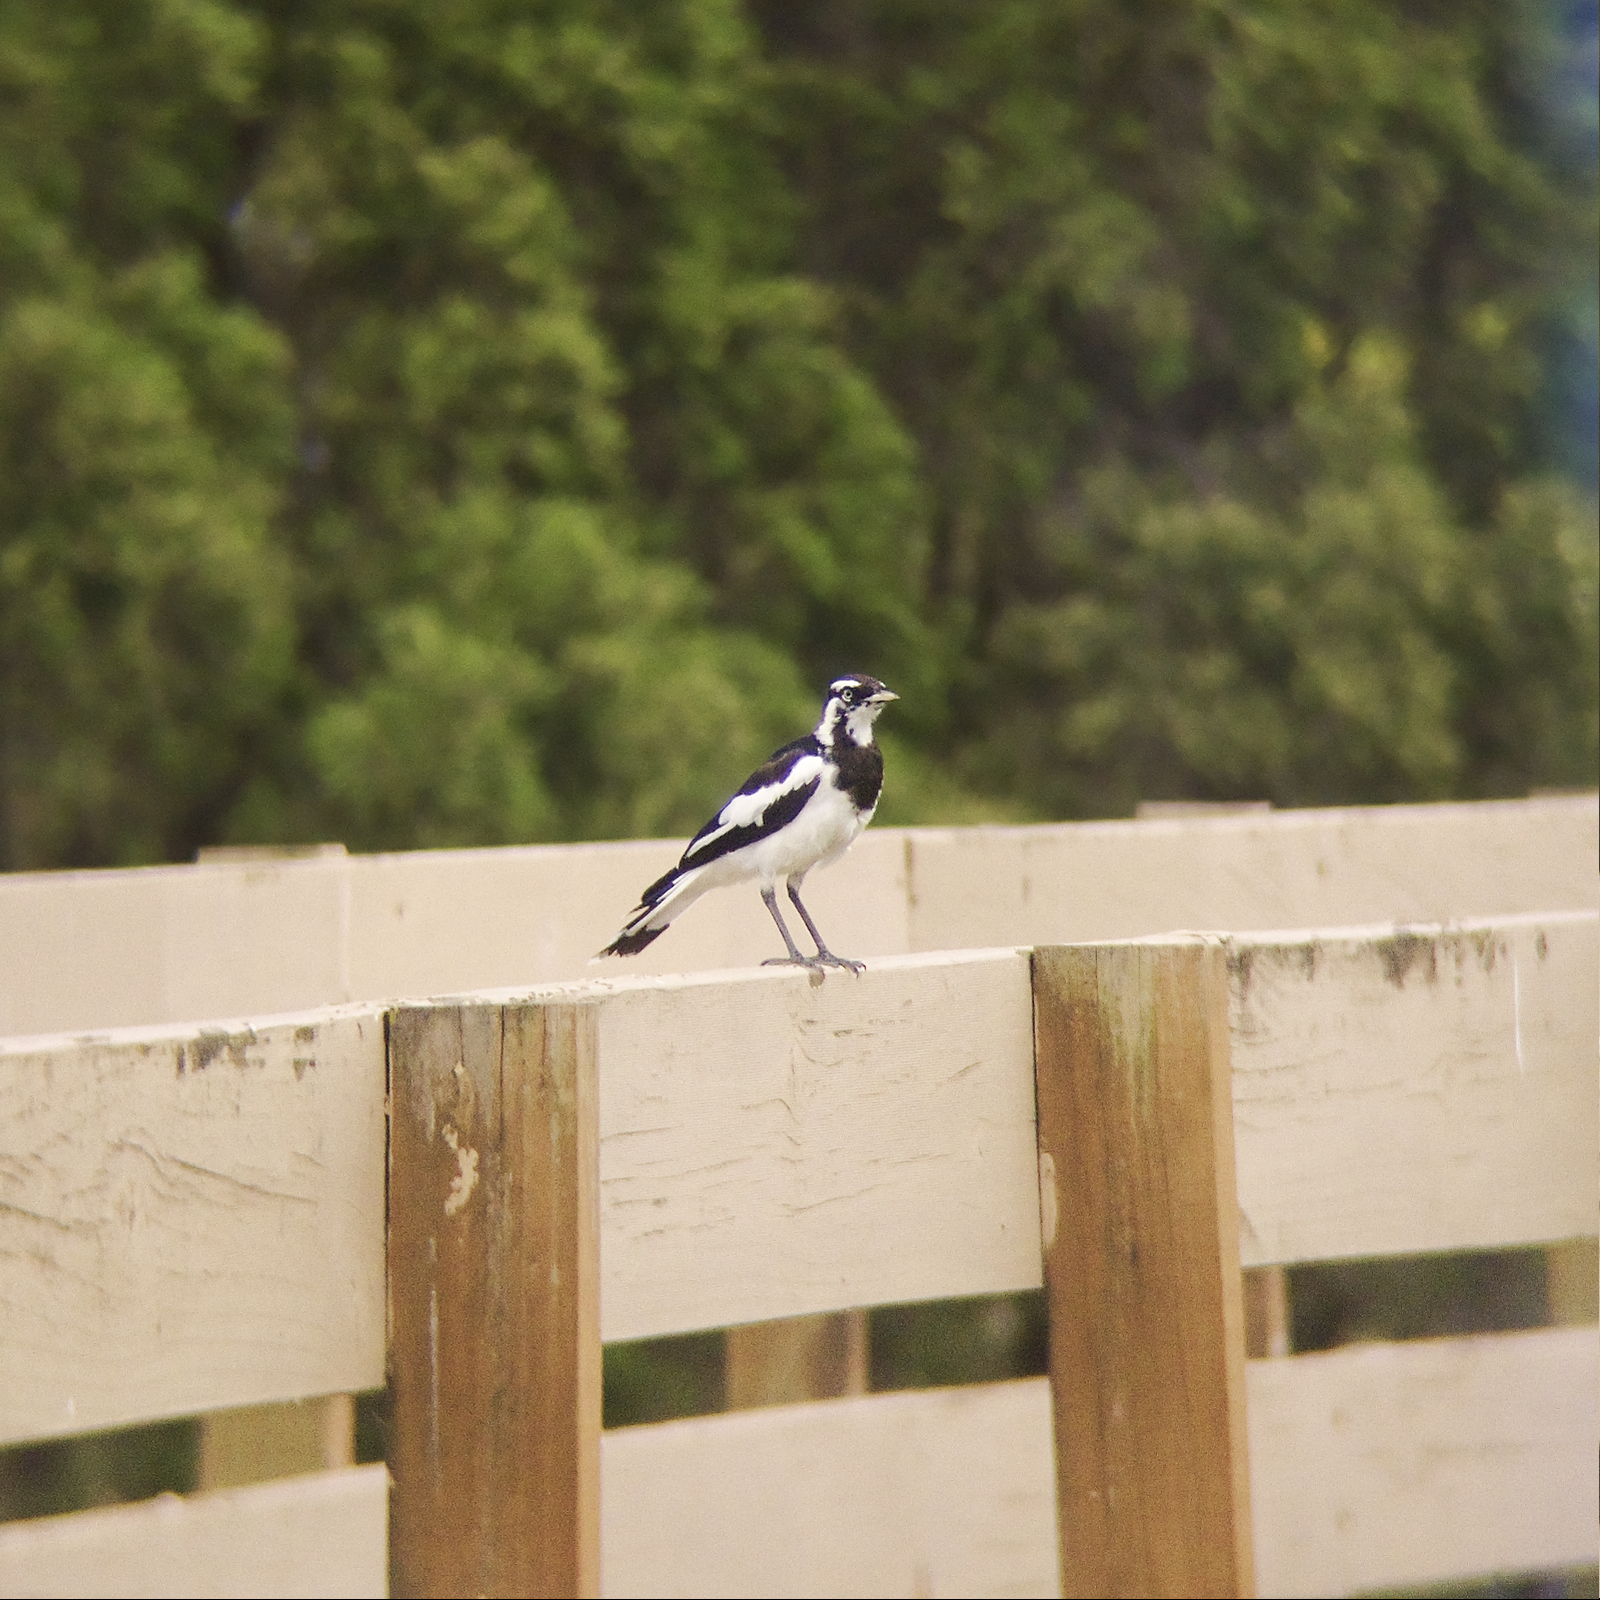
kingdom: Animalia
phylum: Chordata
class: Aves
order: Passeriformes
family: Monarchidae
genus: Grallina
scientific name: Grallina cyanoleuca
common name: Magpie-lark
